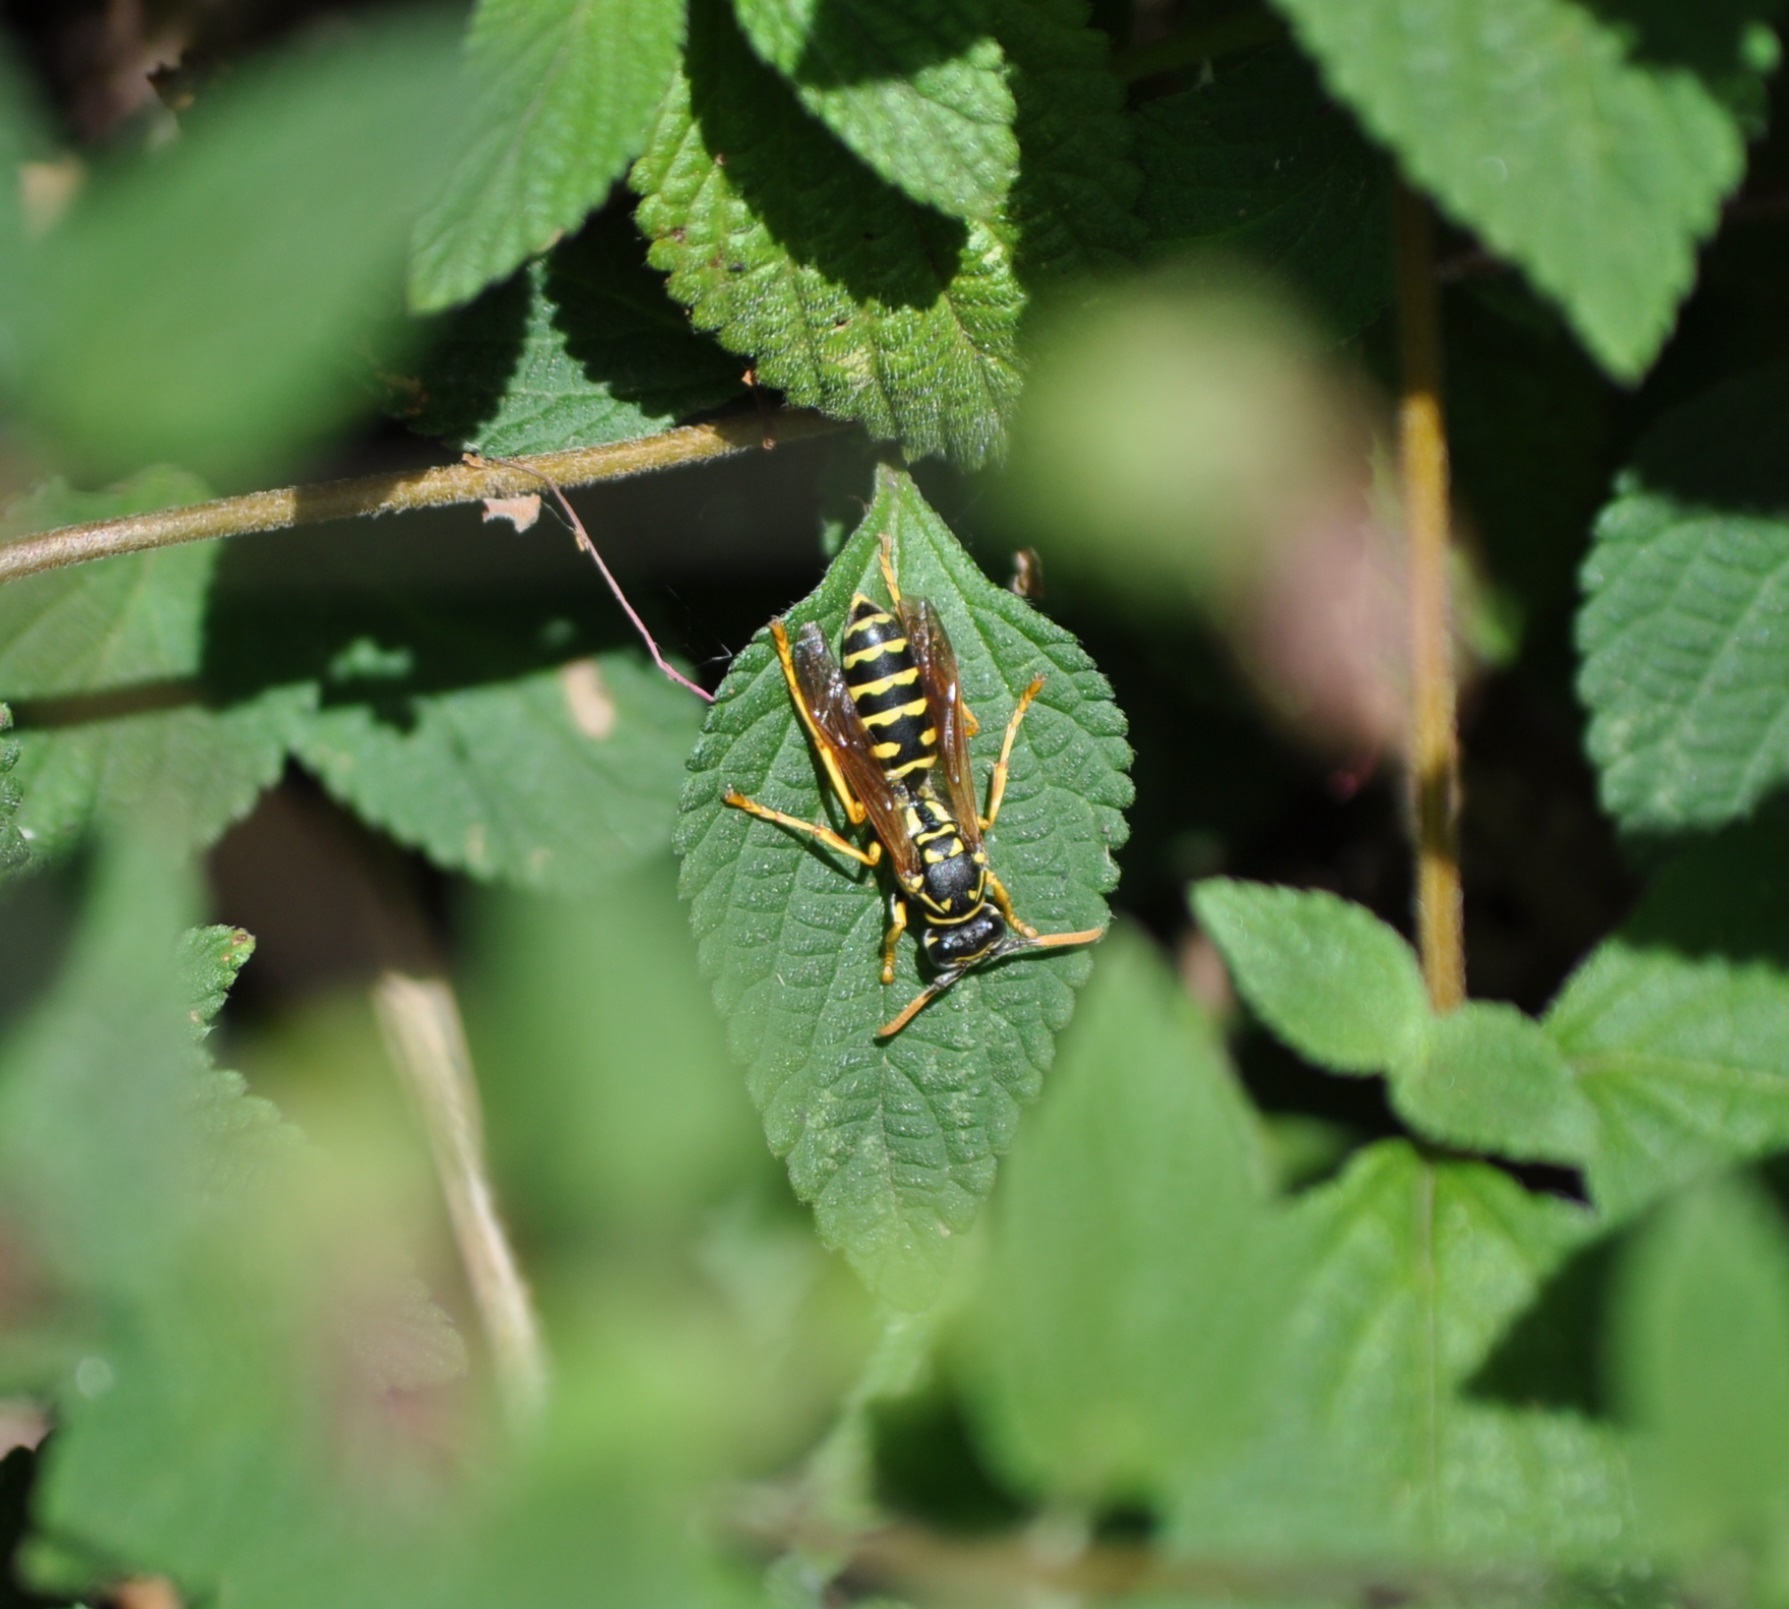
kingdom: Animalia
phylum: Arthropoda
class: Insecta
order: Hymenoptera
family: Eumenidae
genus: Polistes
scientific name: Polistes dominula
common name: Paper wasp
